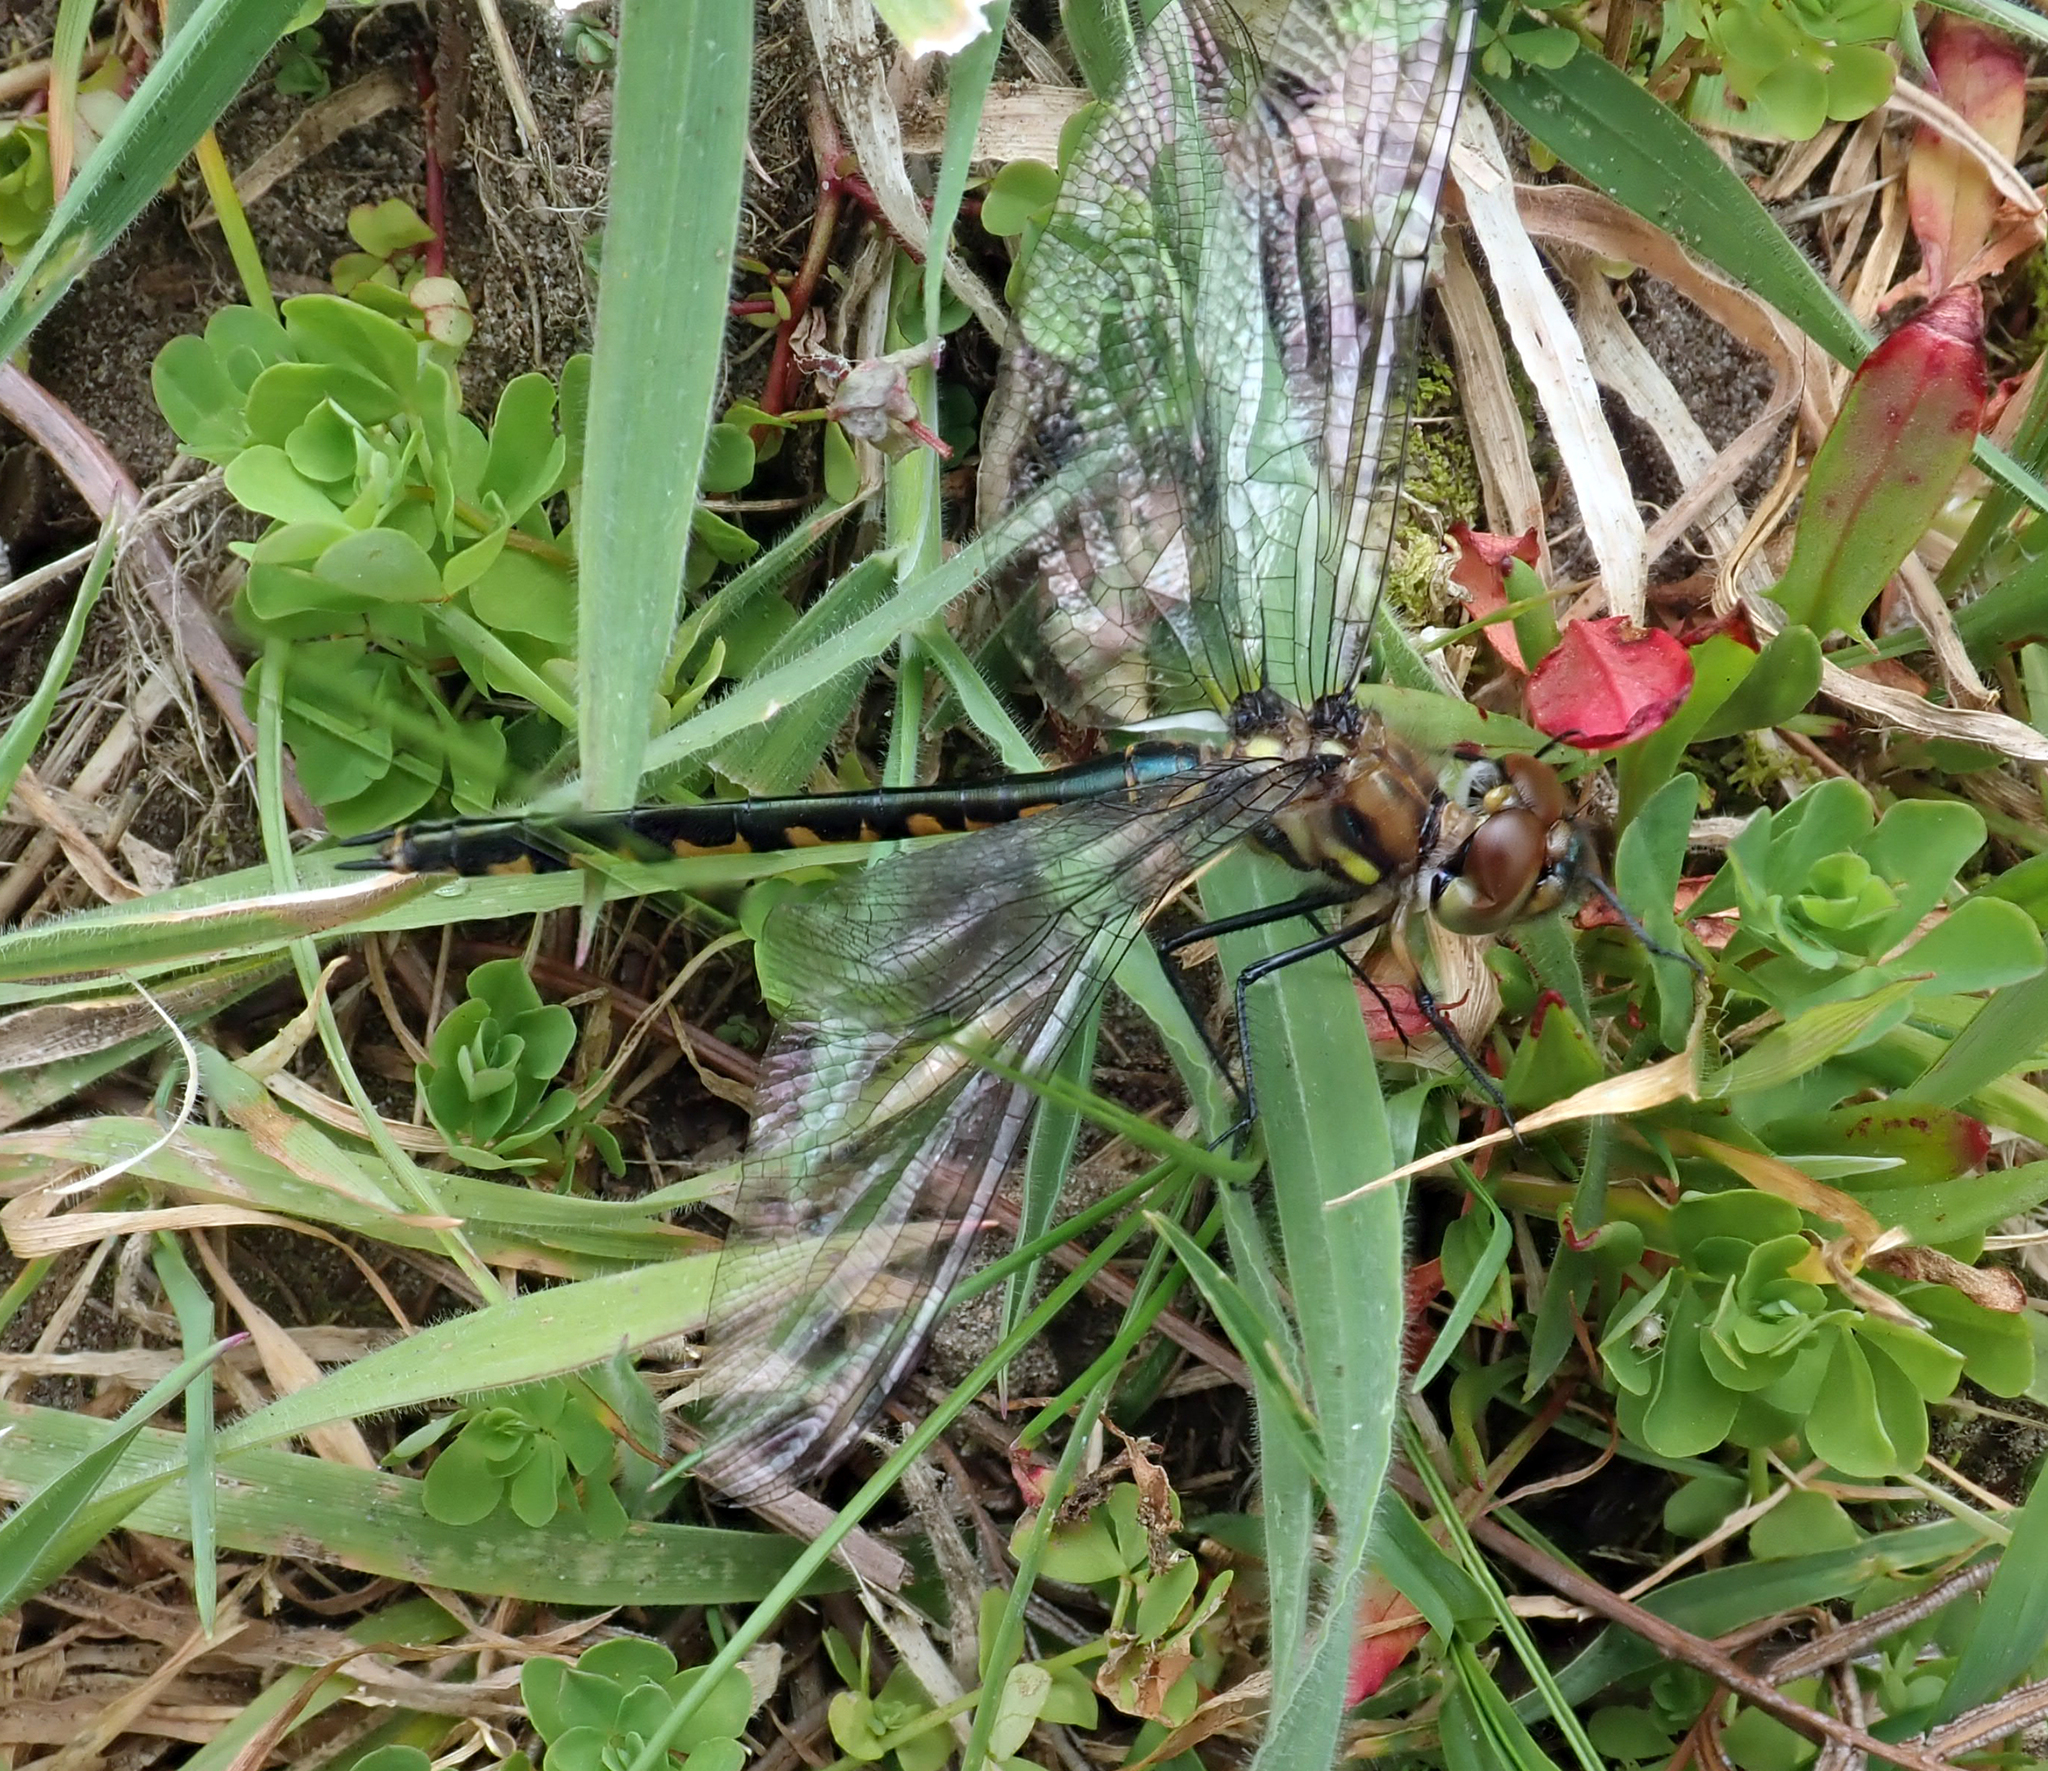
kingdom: Animalia
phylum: Arthropoda
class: Insecta
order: Odonata
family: Corduliidae
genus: Hemicordulia
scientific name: Hemicordulia armstrongi
